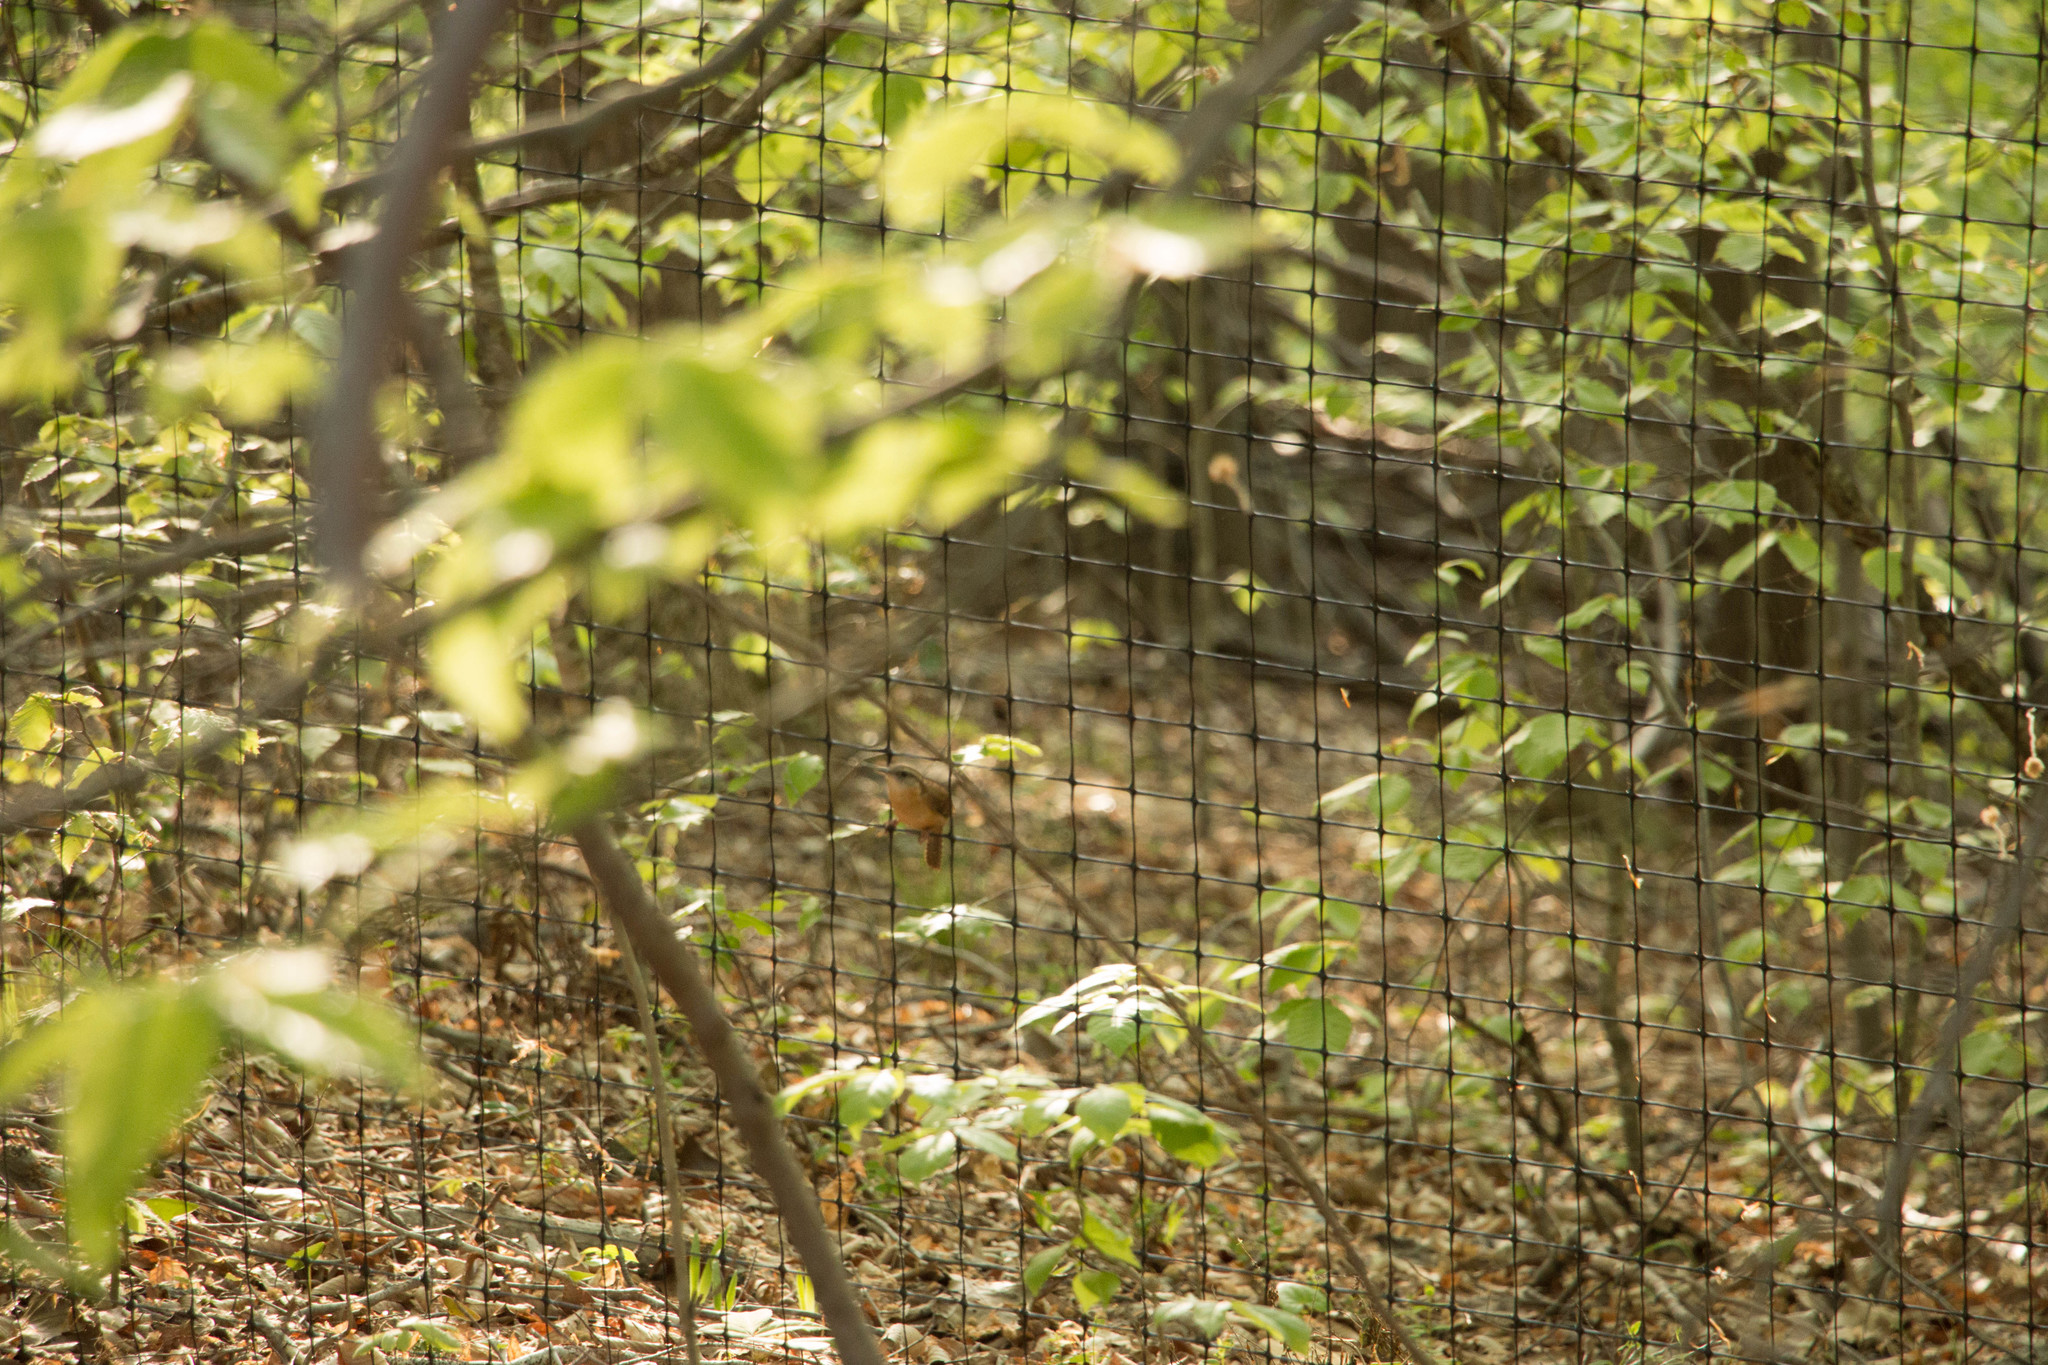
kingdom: Animalia
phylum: Chordata
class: Aves
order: Passeriformes
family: Troglodytidae
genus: Thryothorus
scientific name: Thryothorus ludovicianus
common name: Carolina wren
